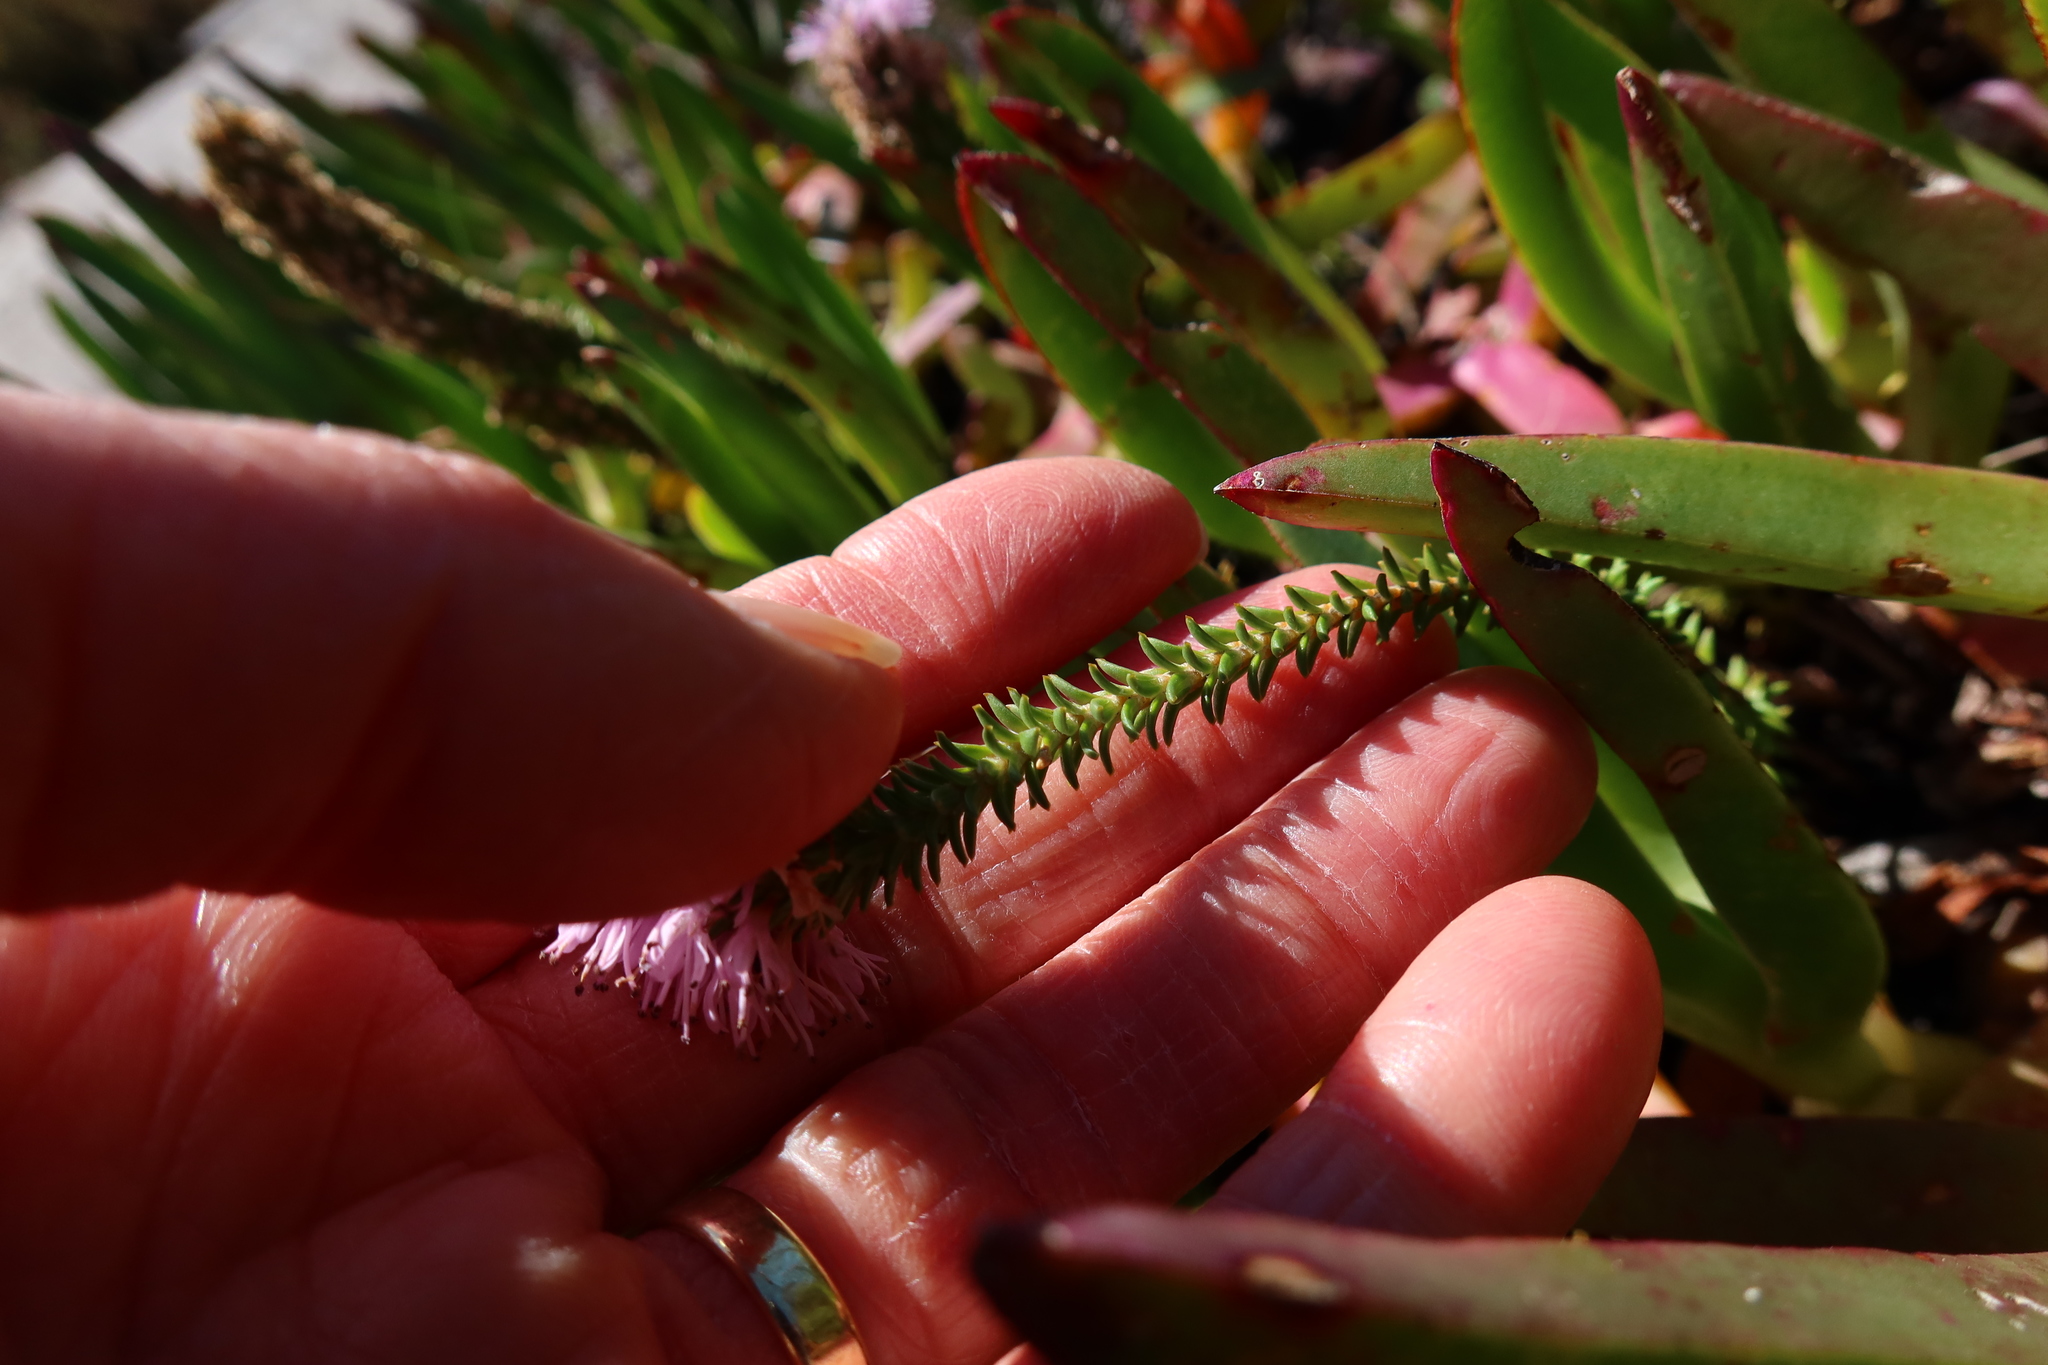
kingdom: Plantae
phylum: Tracheophyta
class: Magnoliopsida
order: Lamiales
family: Stilbaceae
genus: Stilbe
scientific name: Stilbe ericoides
